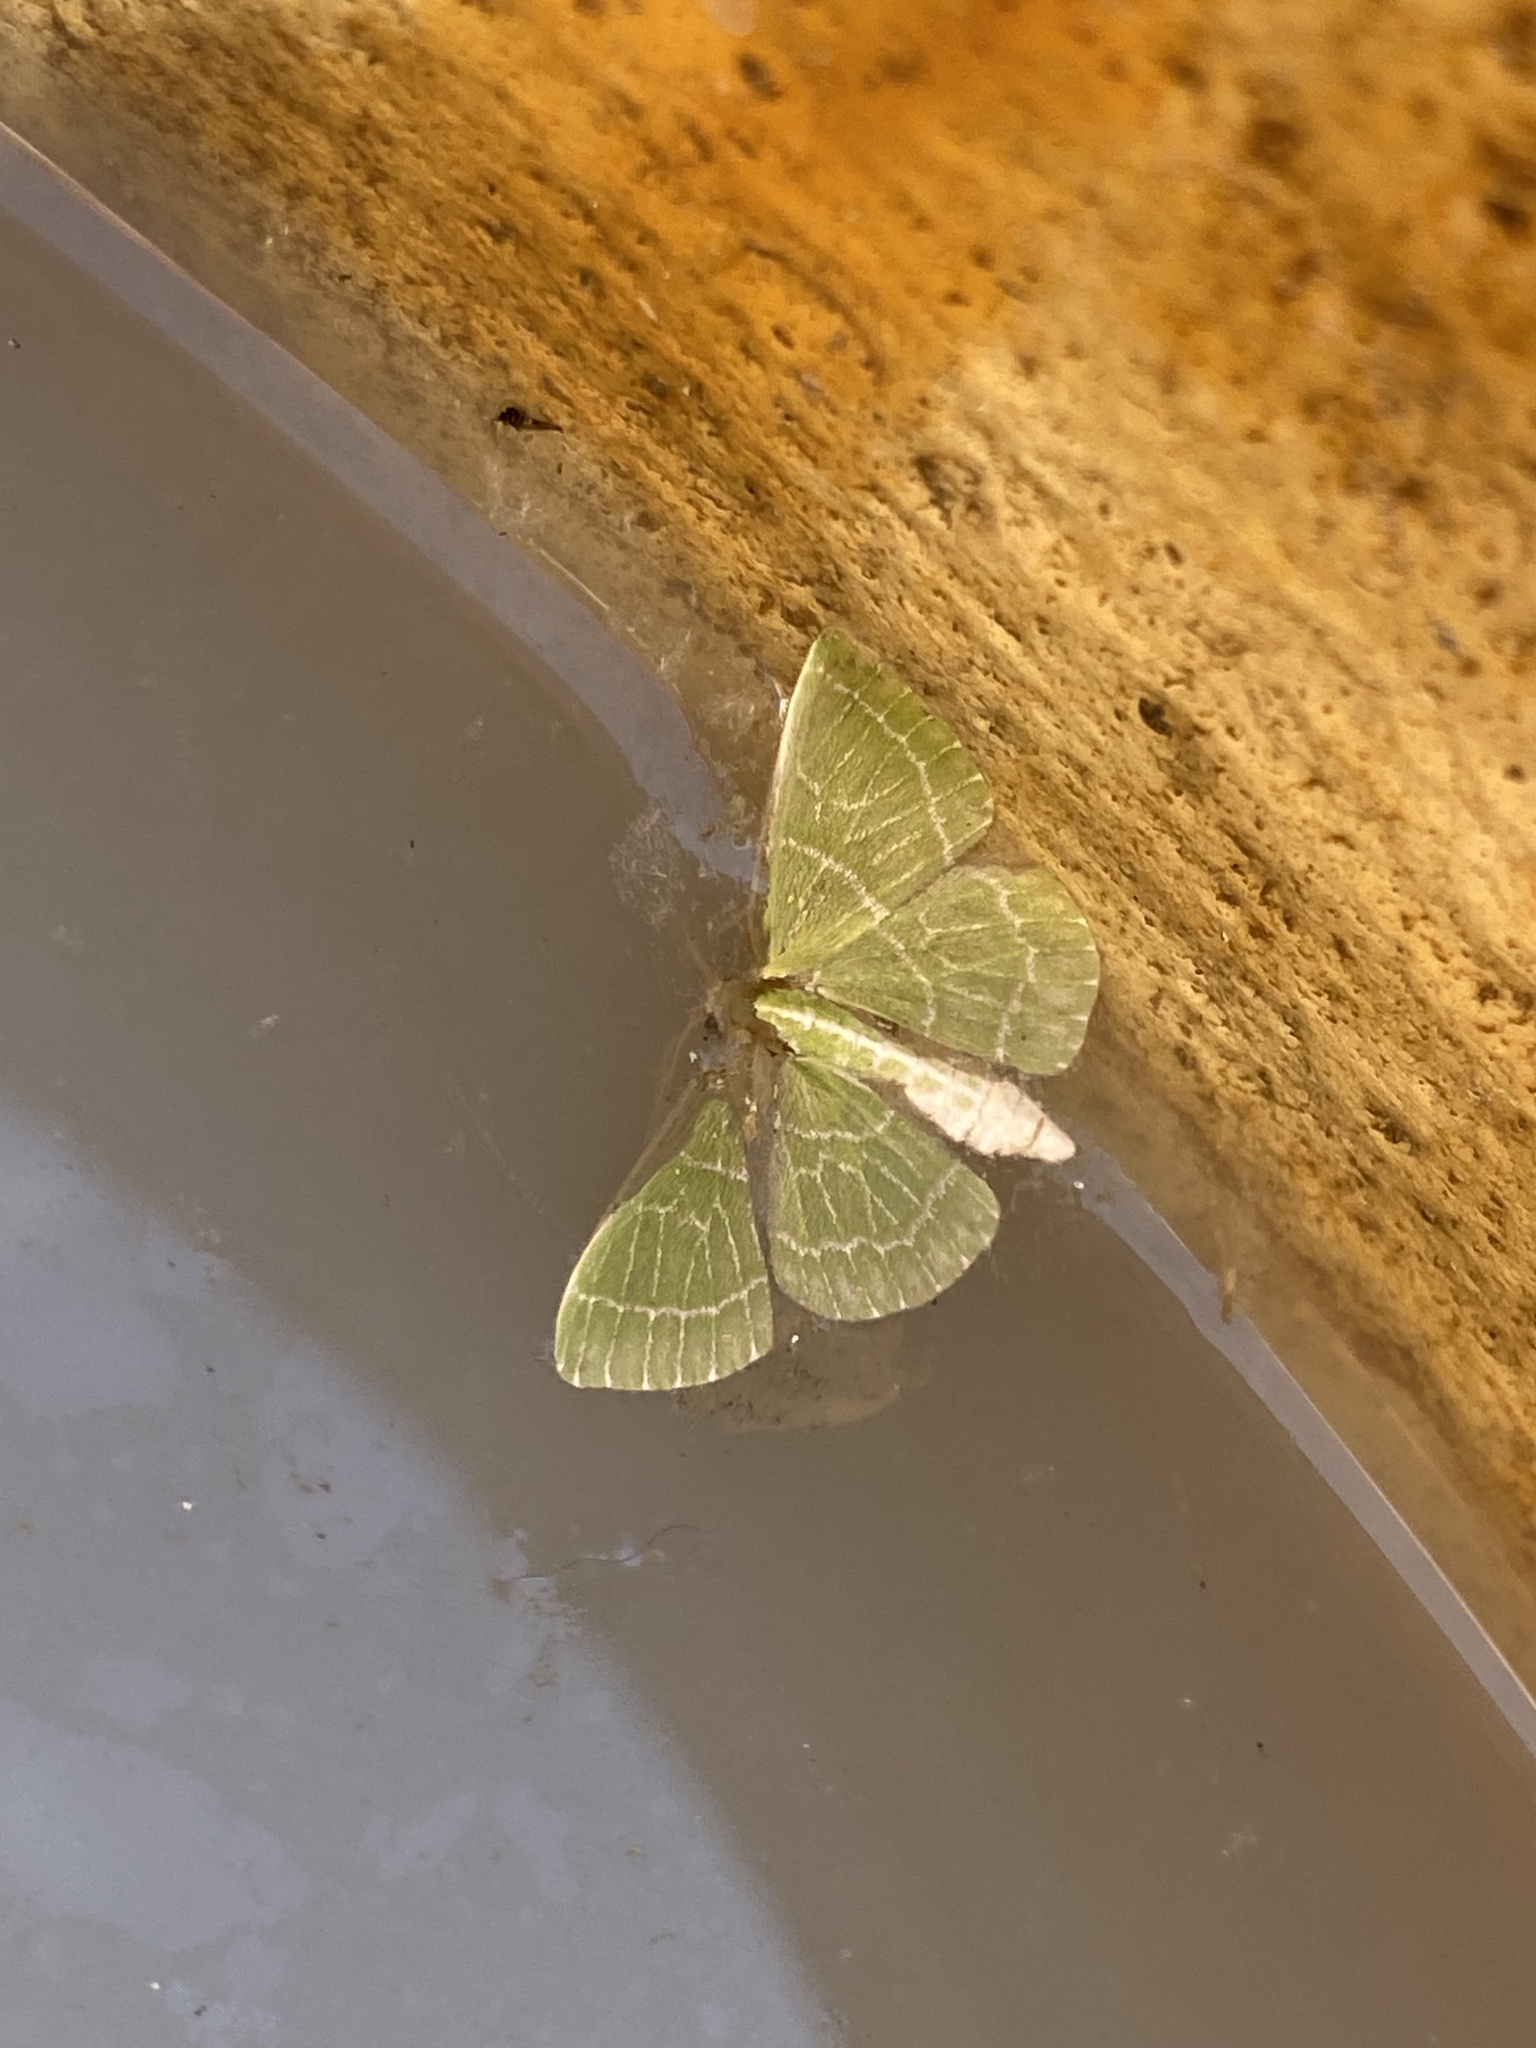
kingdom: Animalia
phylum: Arthropoda
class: Insecta
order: Lepidoptera
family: Geometridae
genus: Synchlora
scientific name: Synchlora aerata
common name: Wavy-lined emerald
